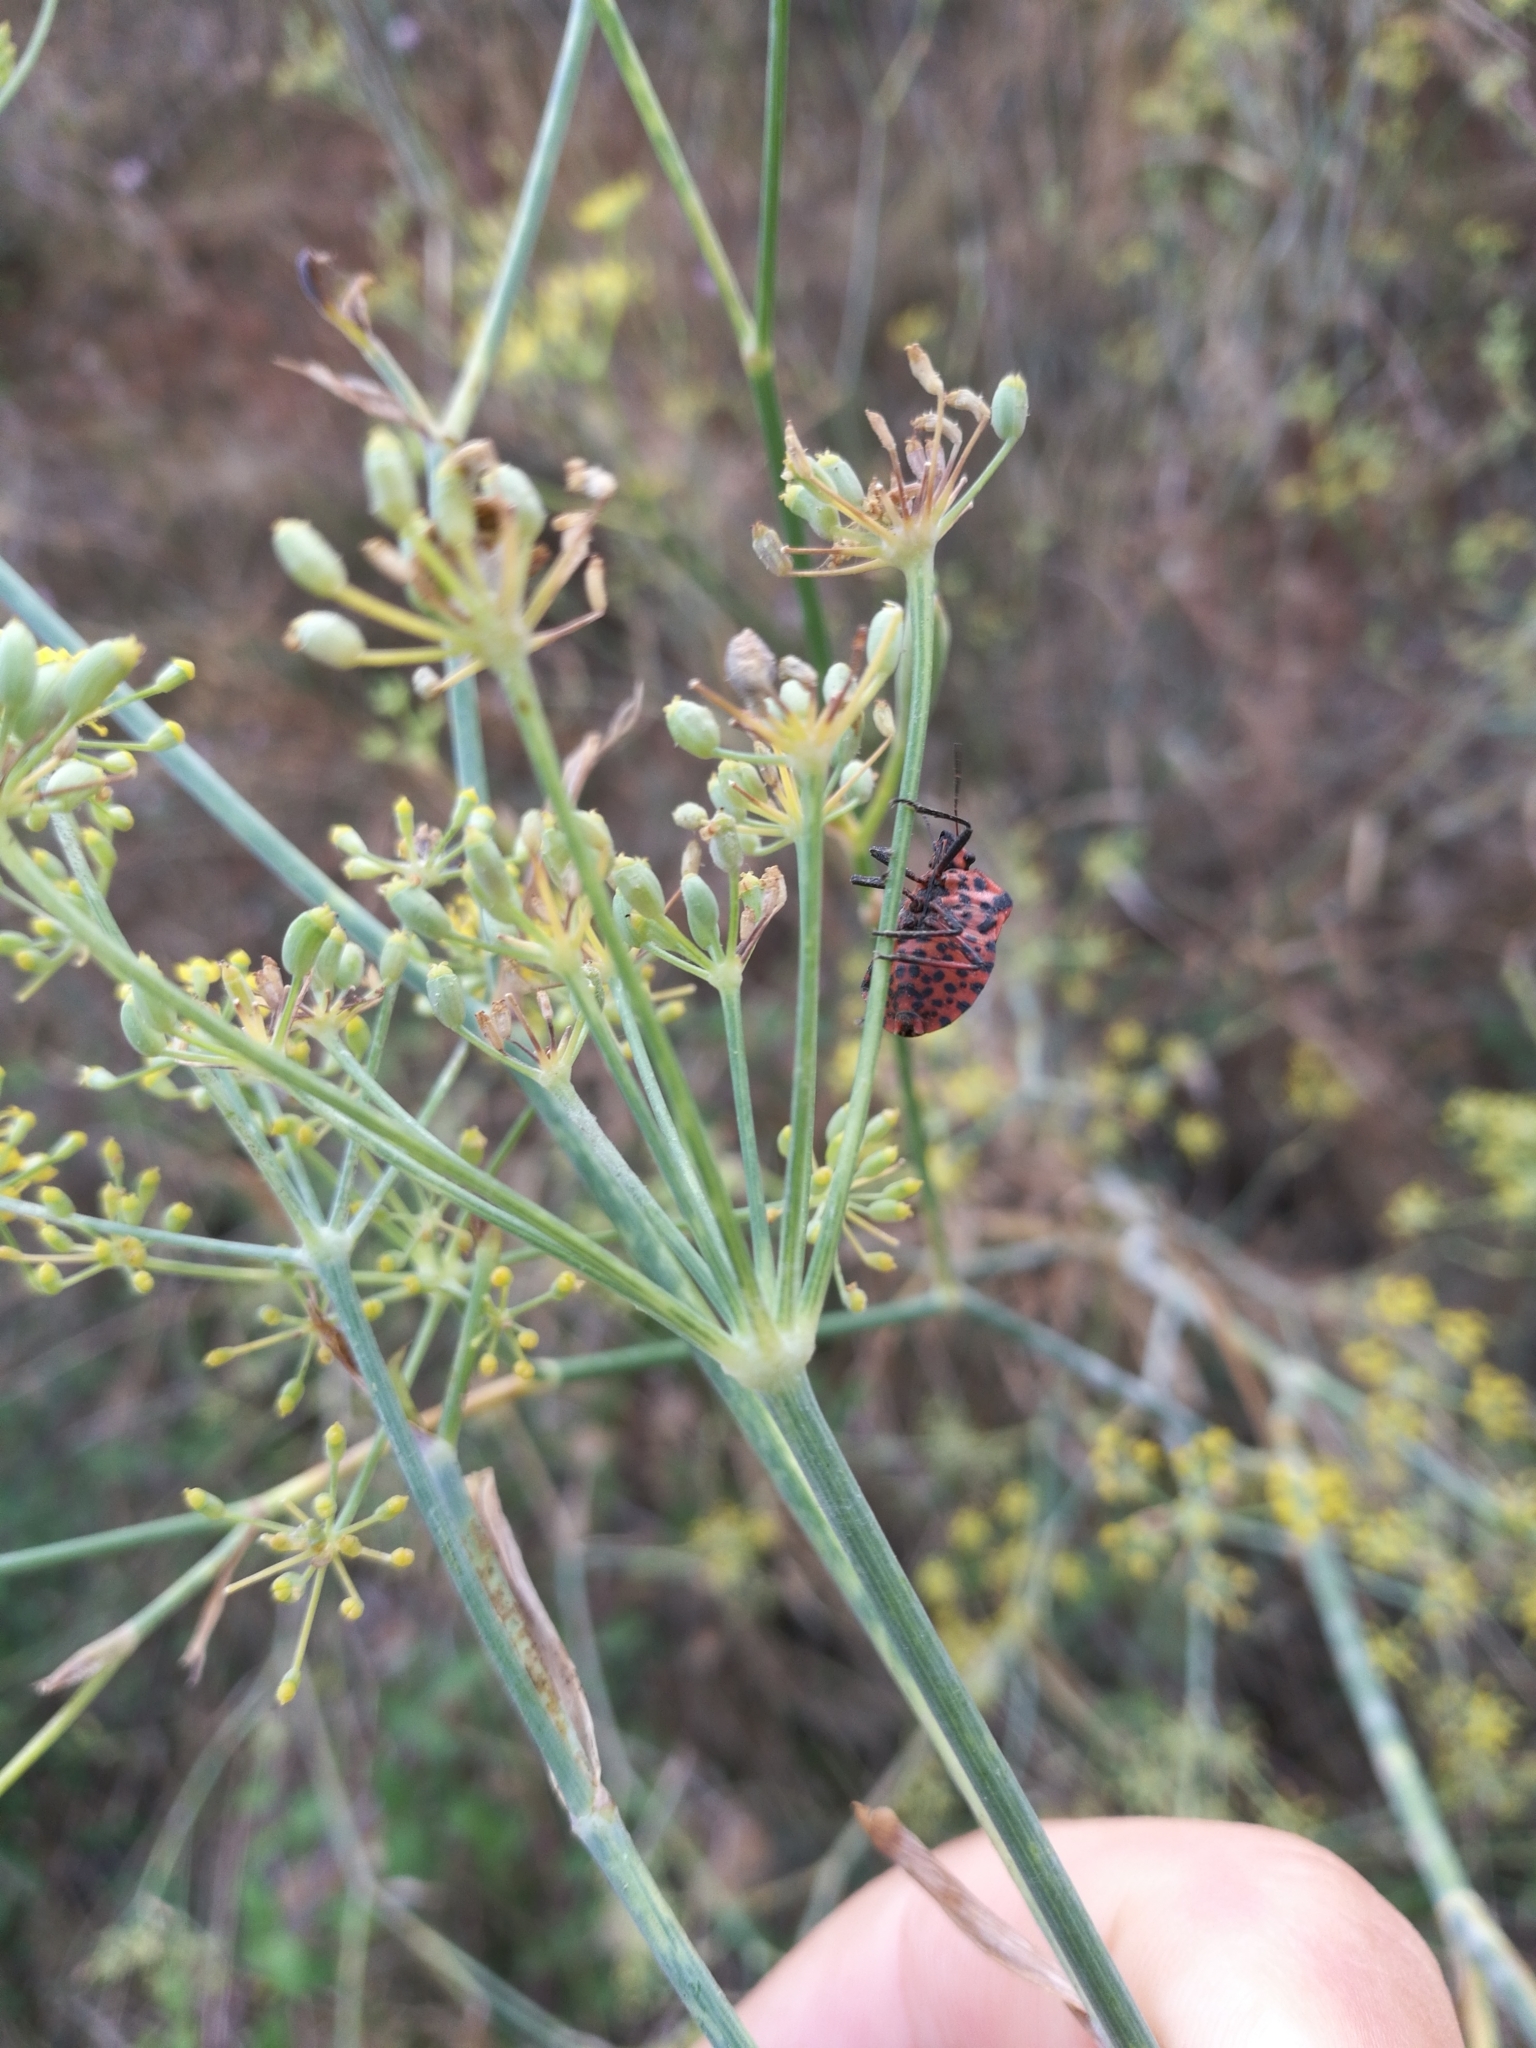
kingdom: Animalia
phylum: Arthropoda
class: Insecta
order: Hemiptera
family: Pentatomidae
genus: Graphosoma
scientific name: Graphosoma italicum
